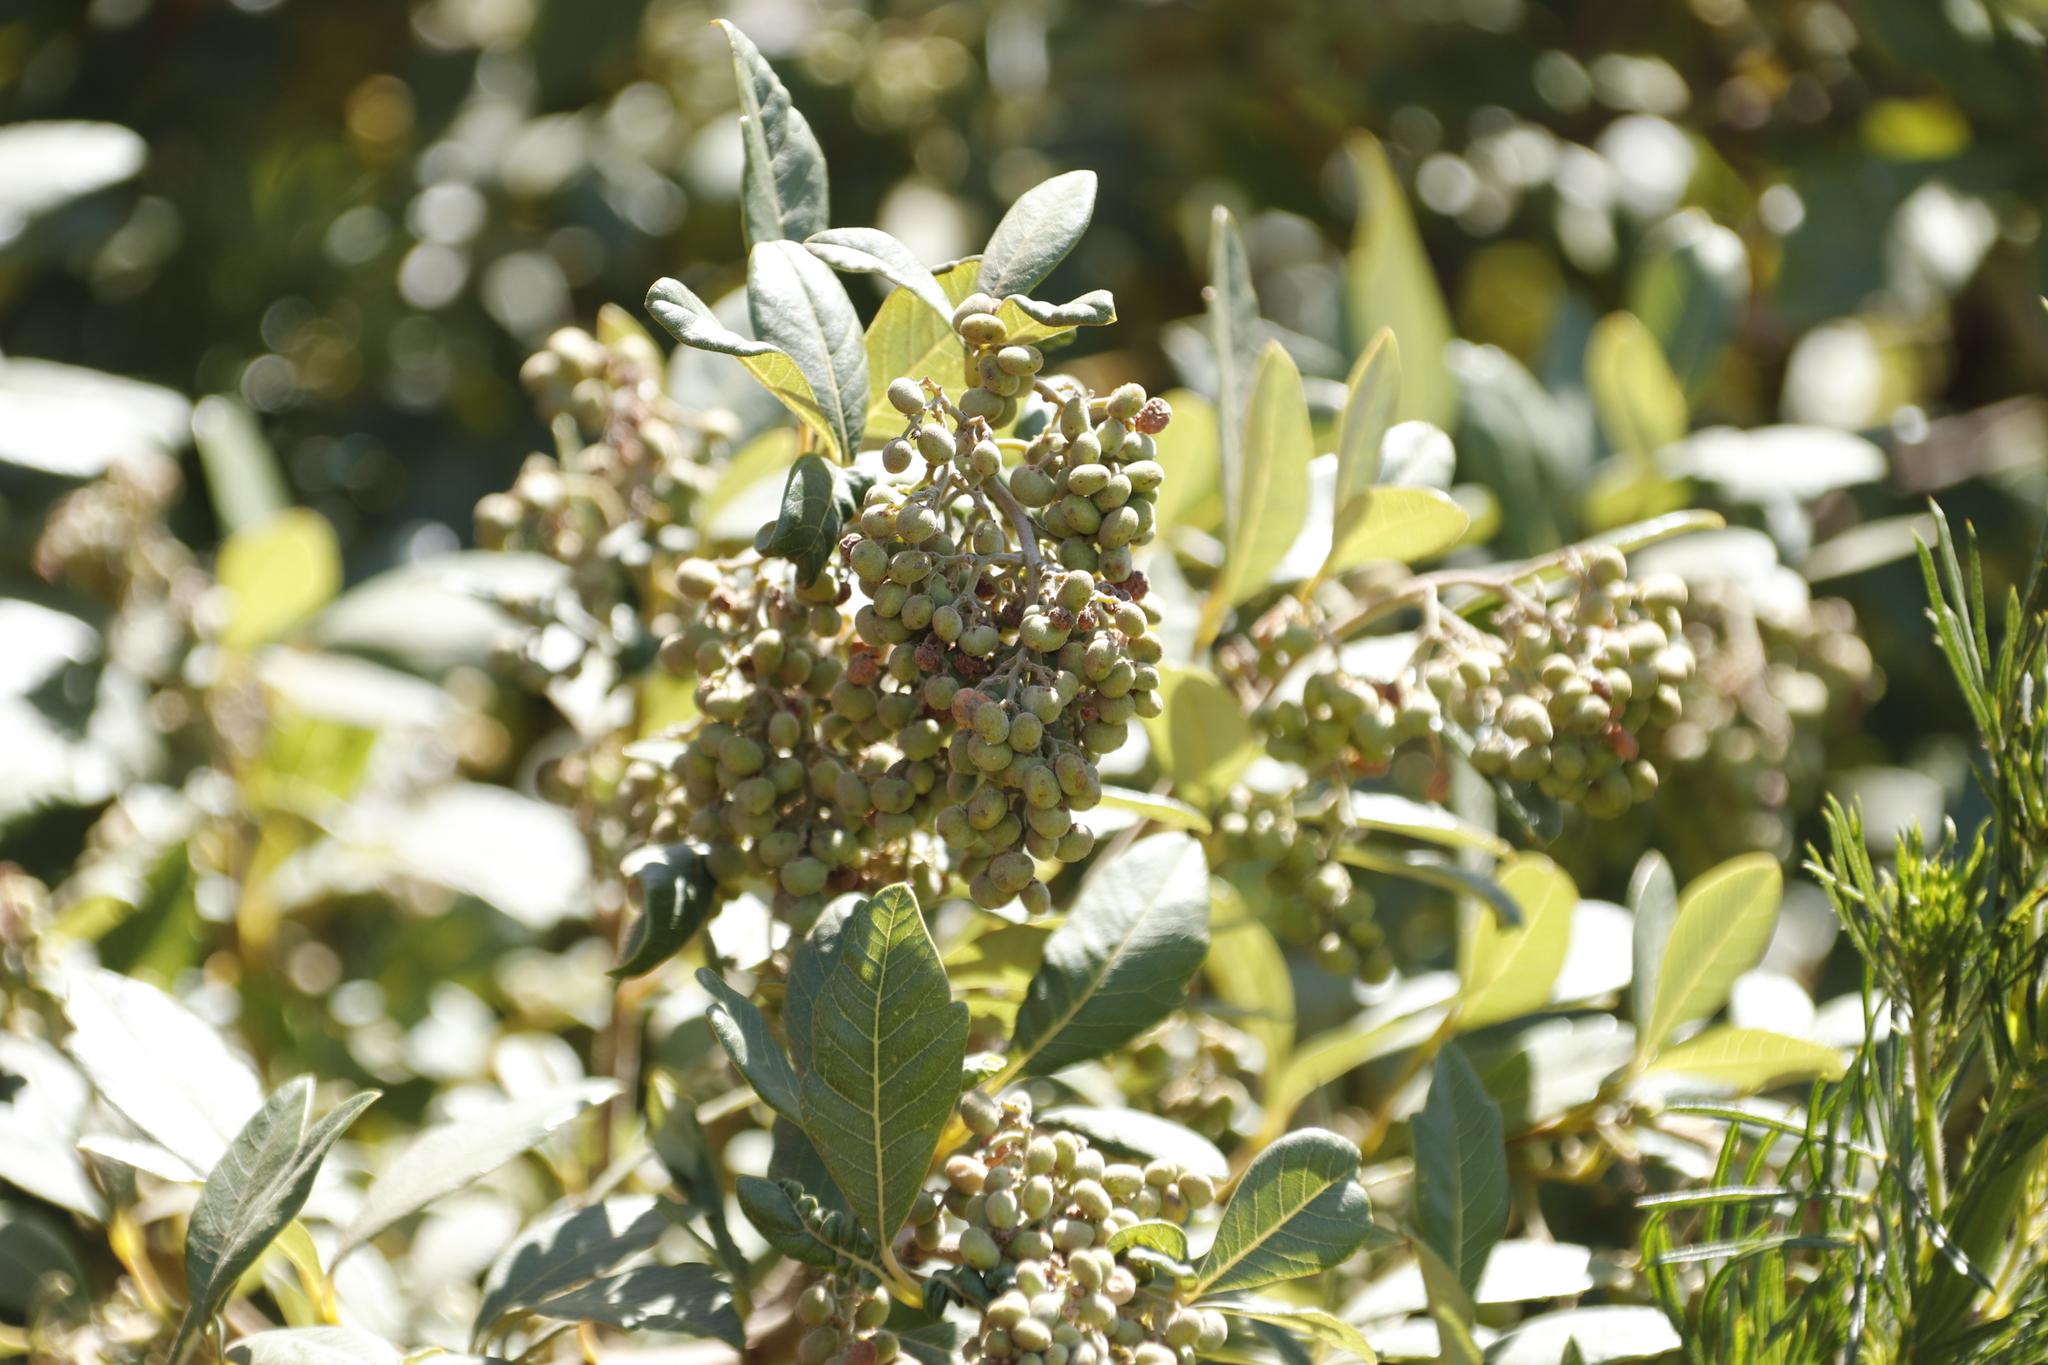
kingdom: Plantae
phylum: Tracheophyta
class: Magnoliopsida
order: Sapindales
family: Anacardiaceae
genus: Searsia
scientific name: Searsia tomentosa
